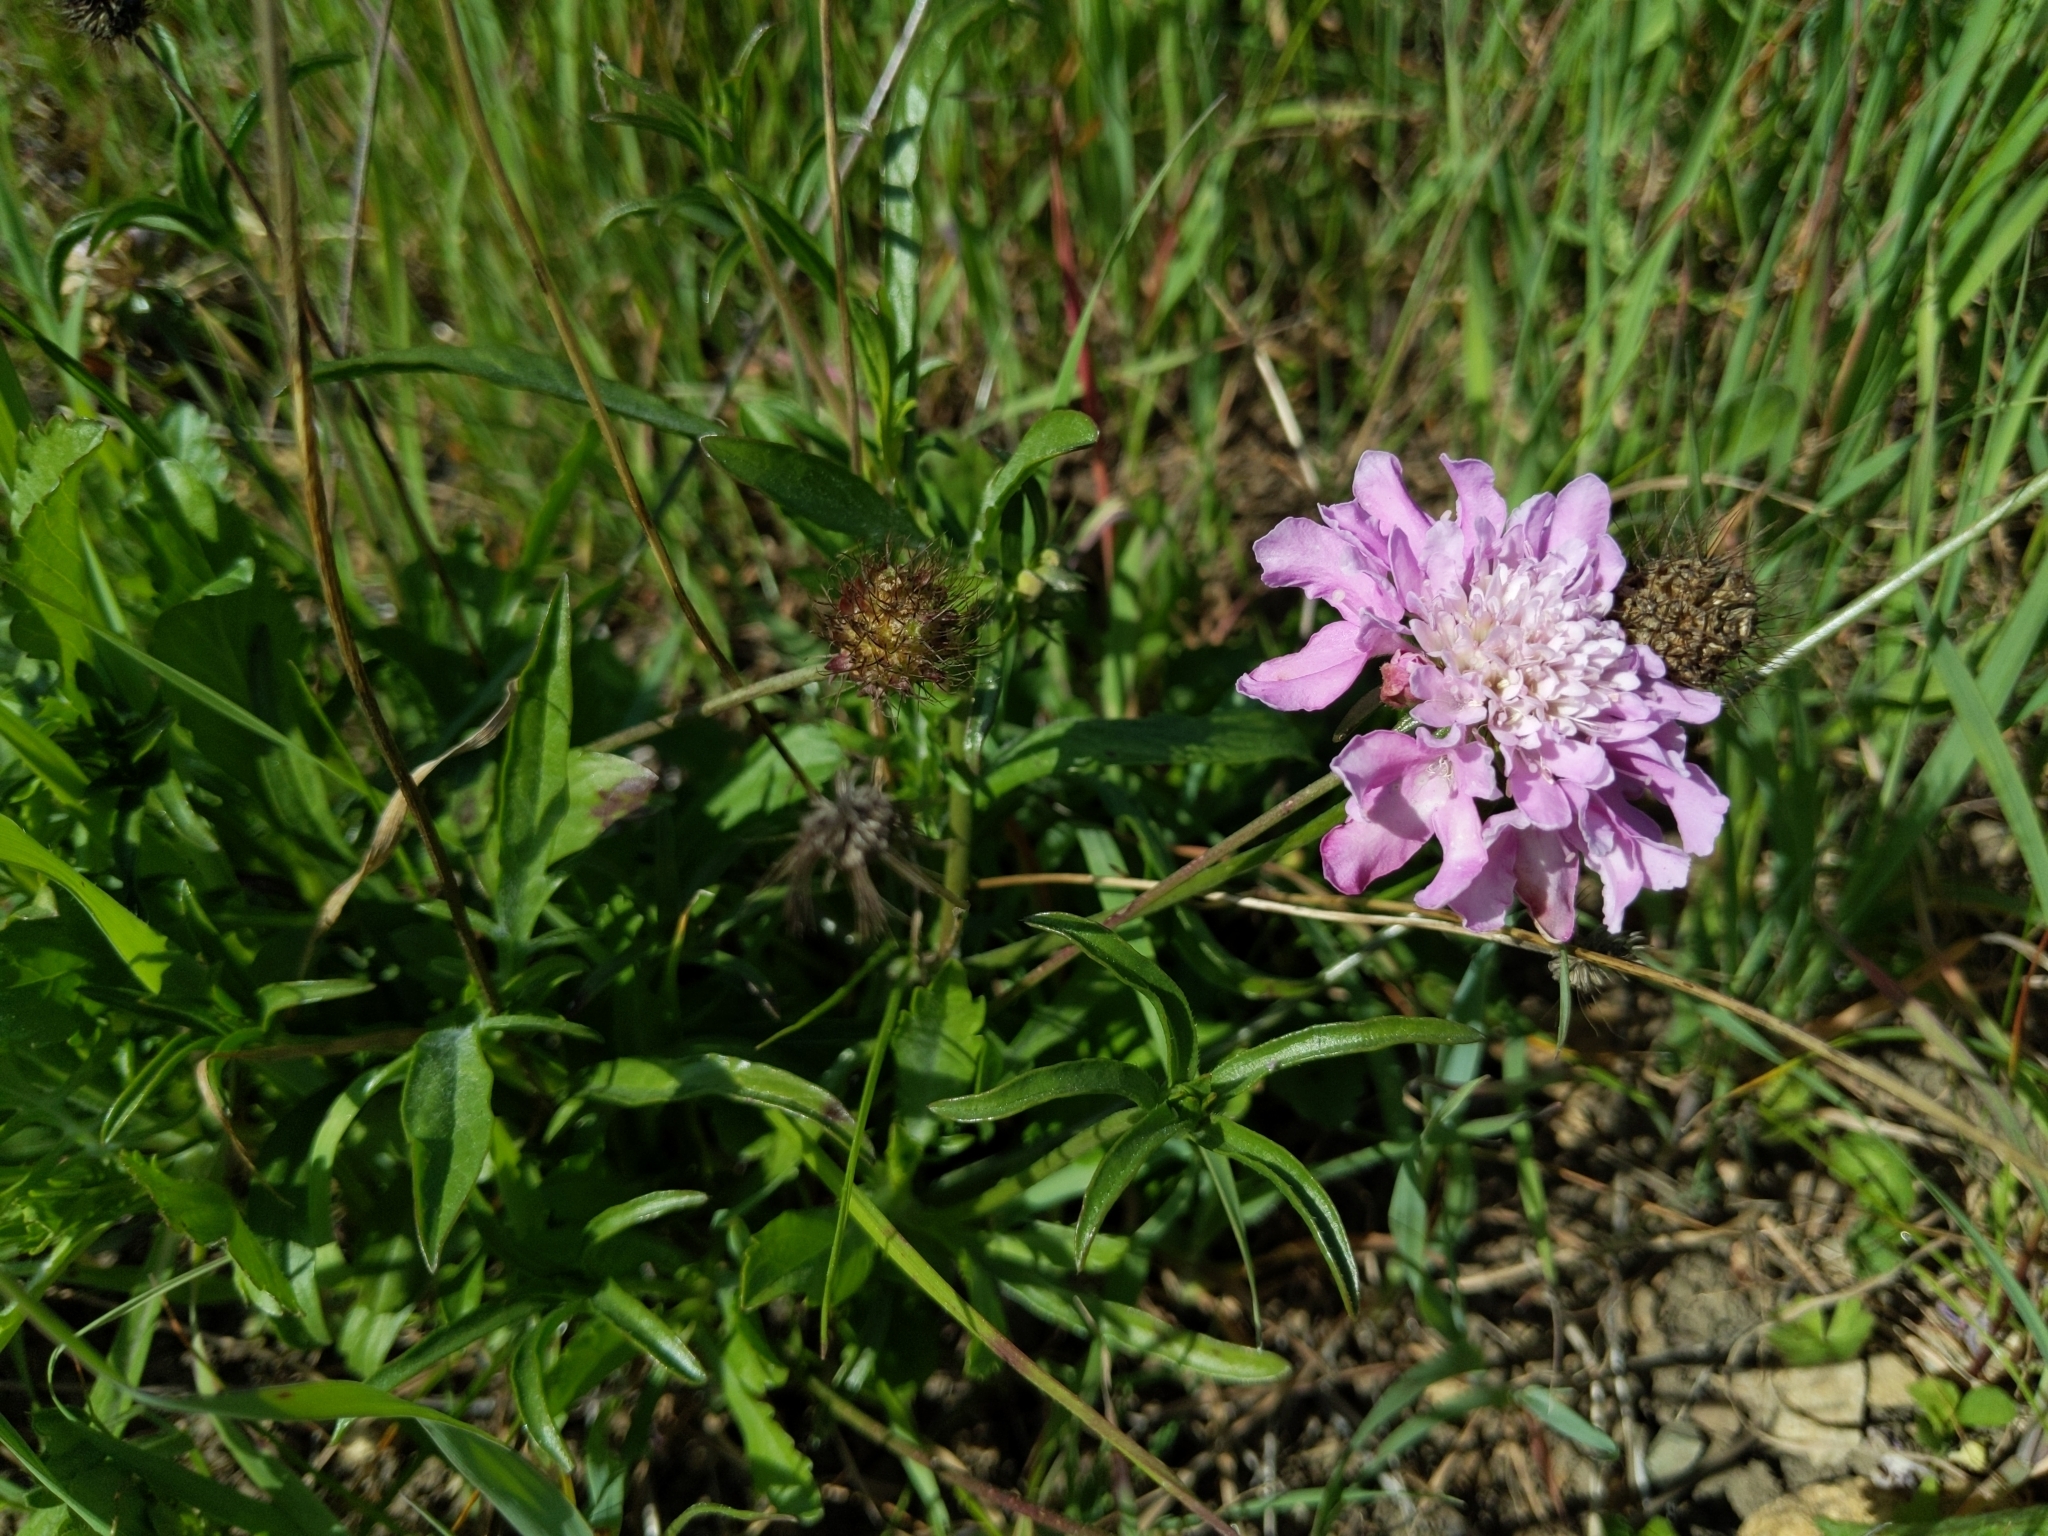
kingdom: Plantae
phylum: Tracheophyta
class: Magnoliopsida
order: Dipsacales
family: Caprifoliaceae
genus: Sixalix
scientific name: Sixalix atropurpurea
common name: Sweet scabious
